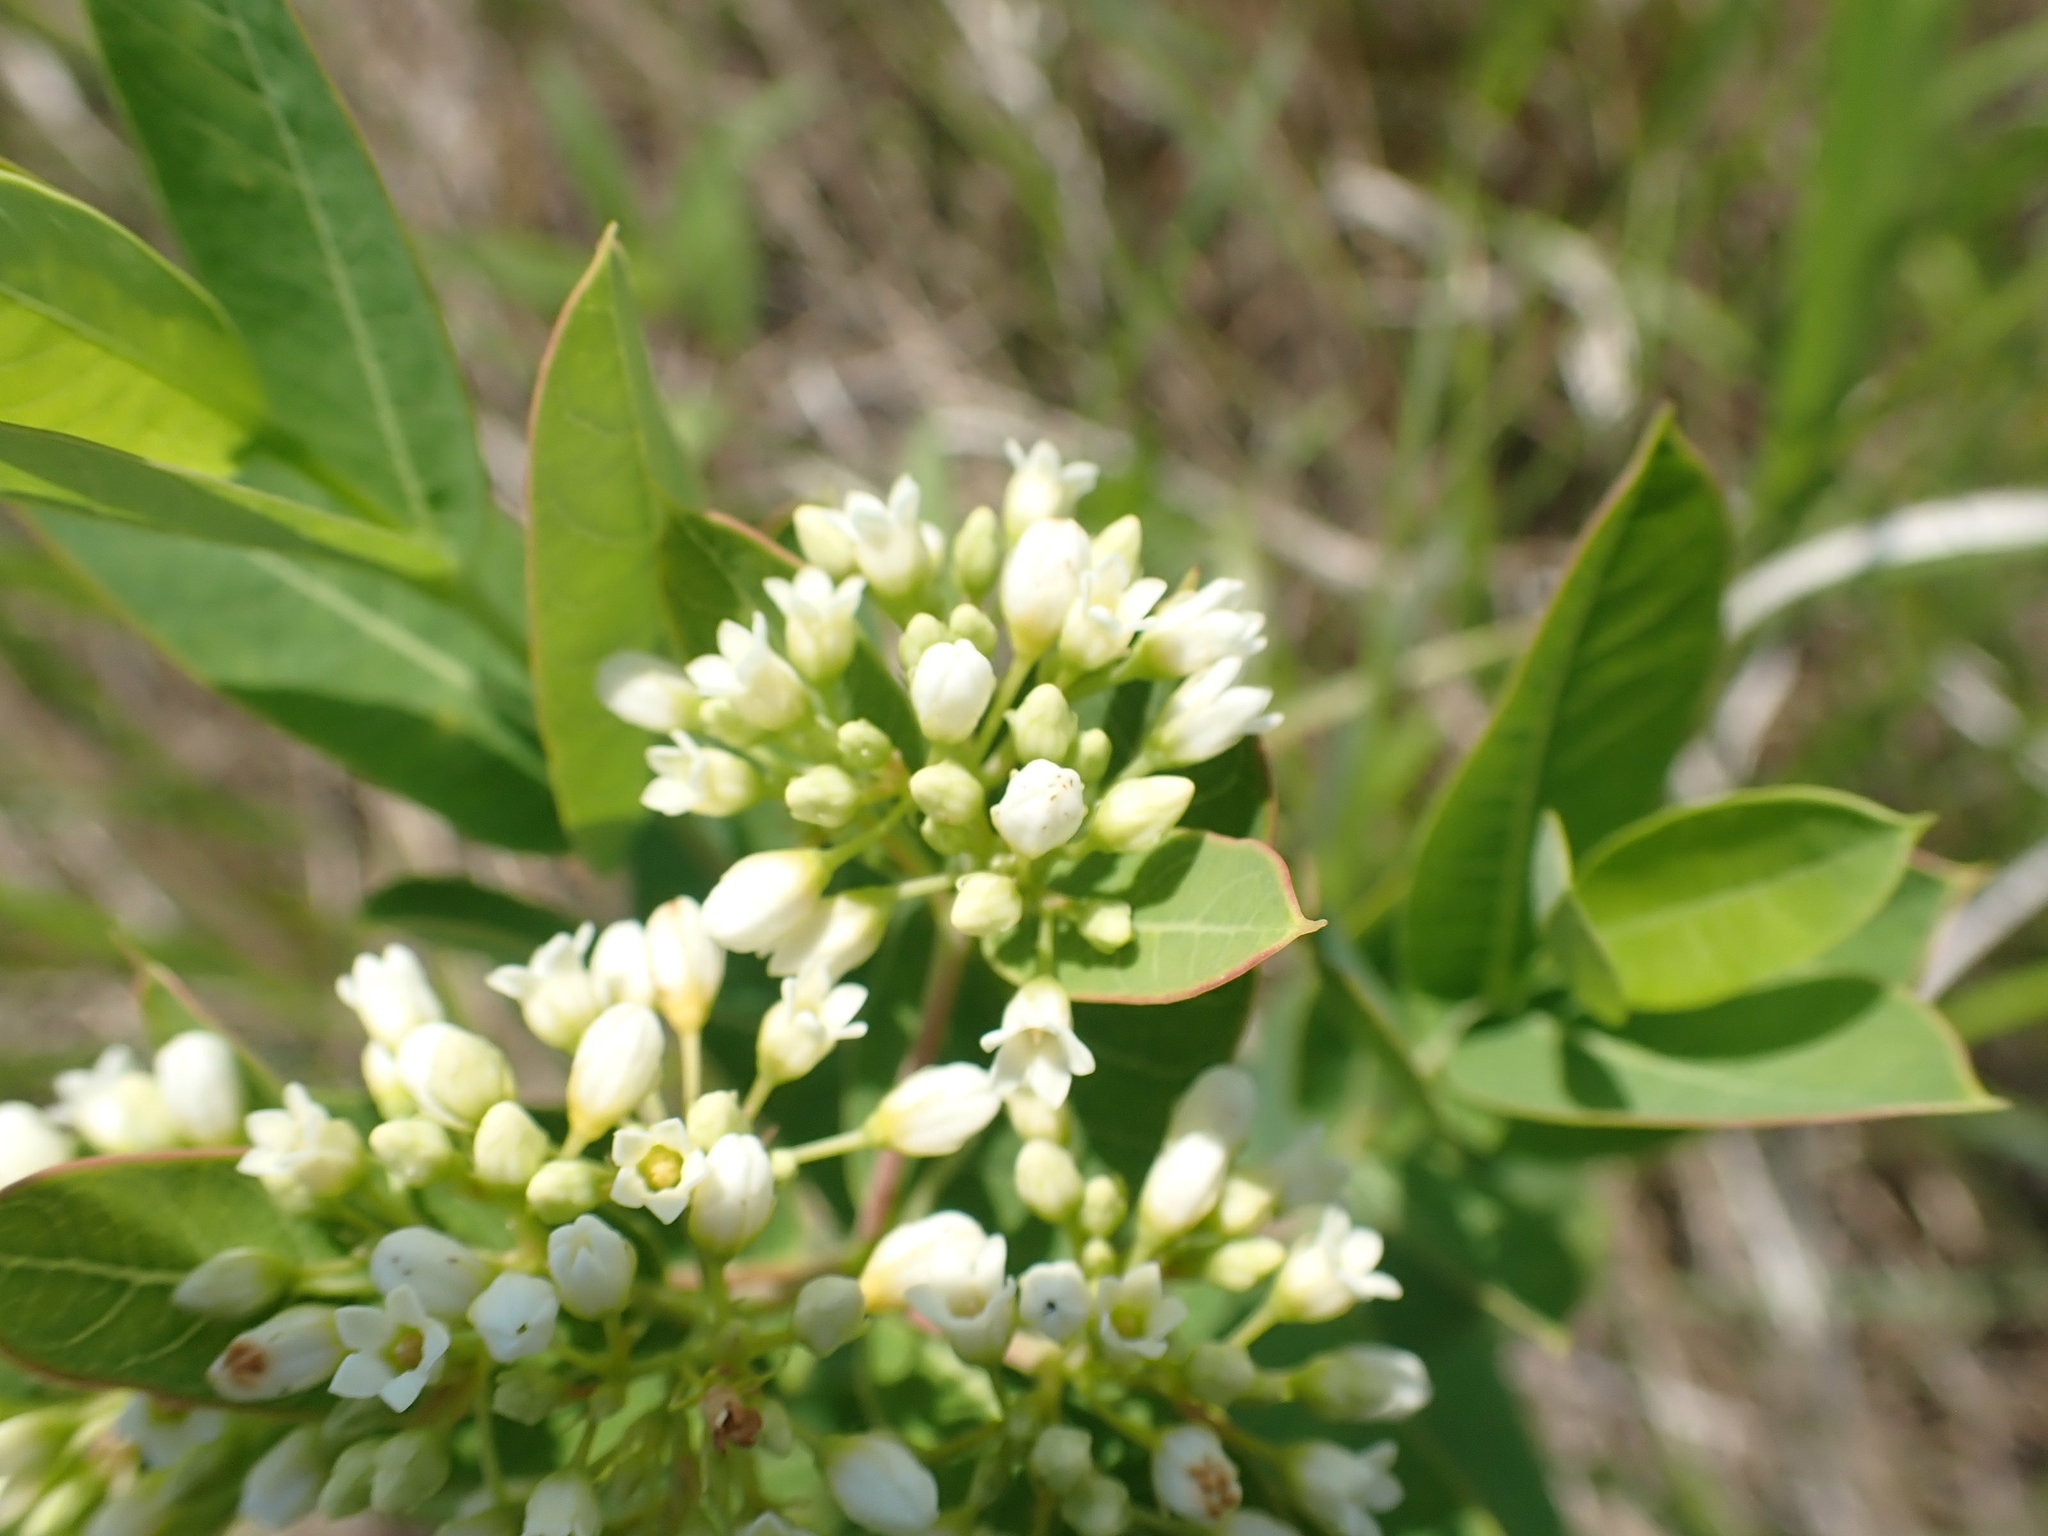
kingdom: Plantae
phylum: Tracheophyta
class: Magnoliopsida
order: Gentianales
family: Apocynaceae
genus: Apocynum
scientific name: Apocynum cannabinum
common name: Hemp dogbane
